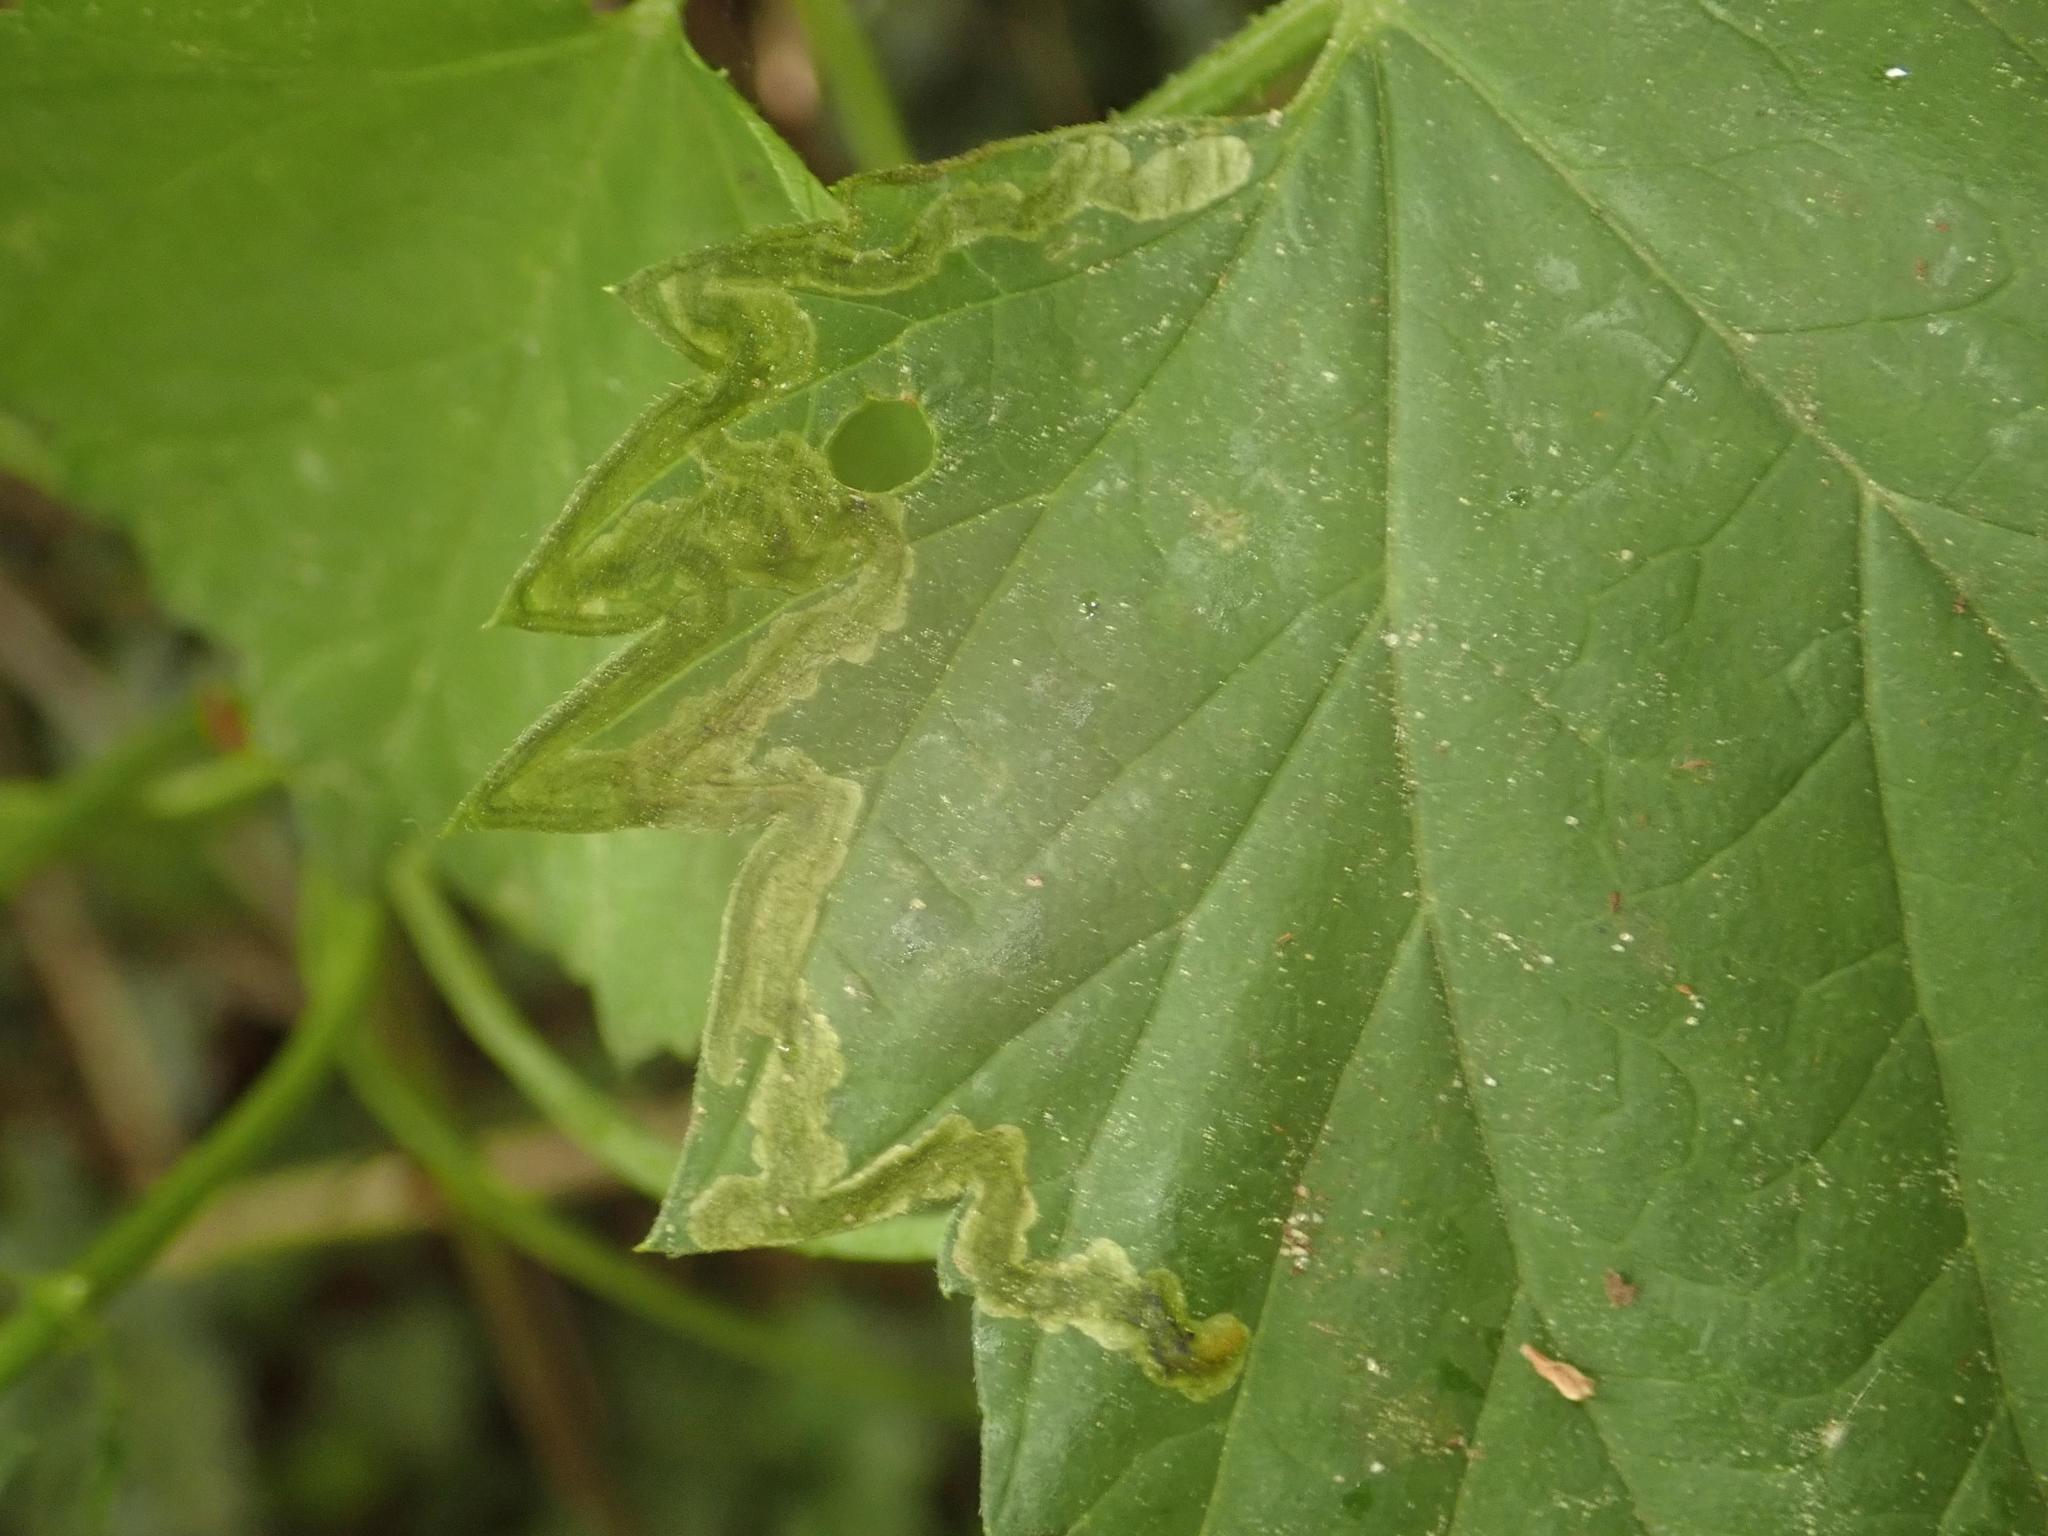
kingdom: Animalia
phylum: Arthropoda
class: Insecta
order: Diptera
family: Agromyzidae
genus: Agromyza
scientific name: Agromyza flaviceps
